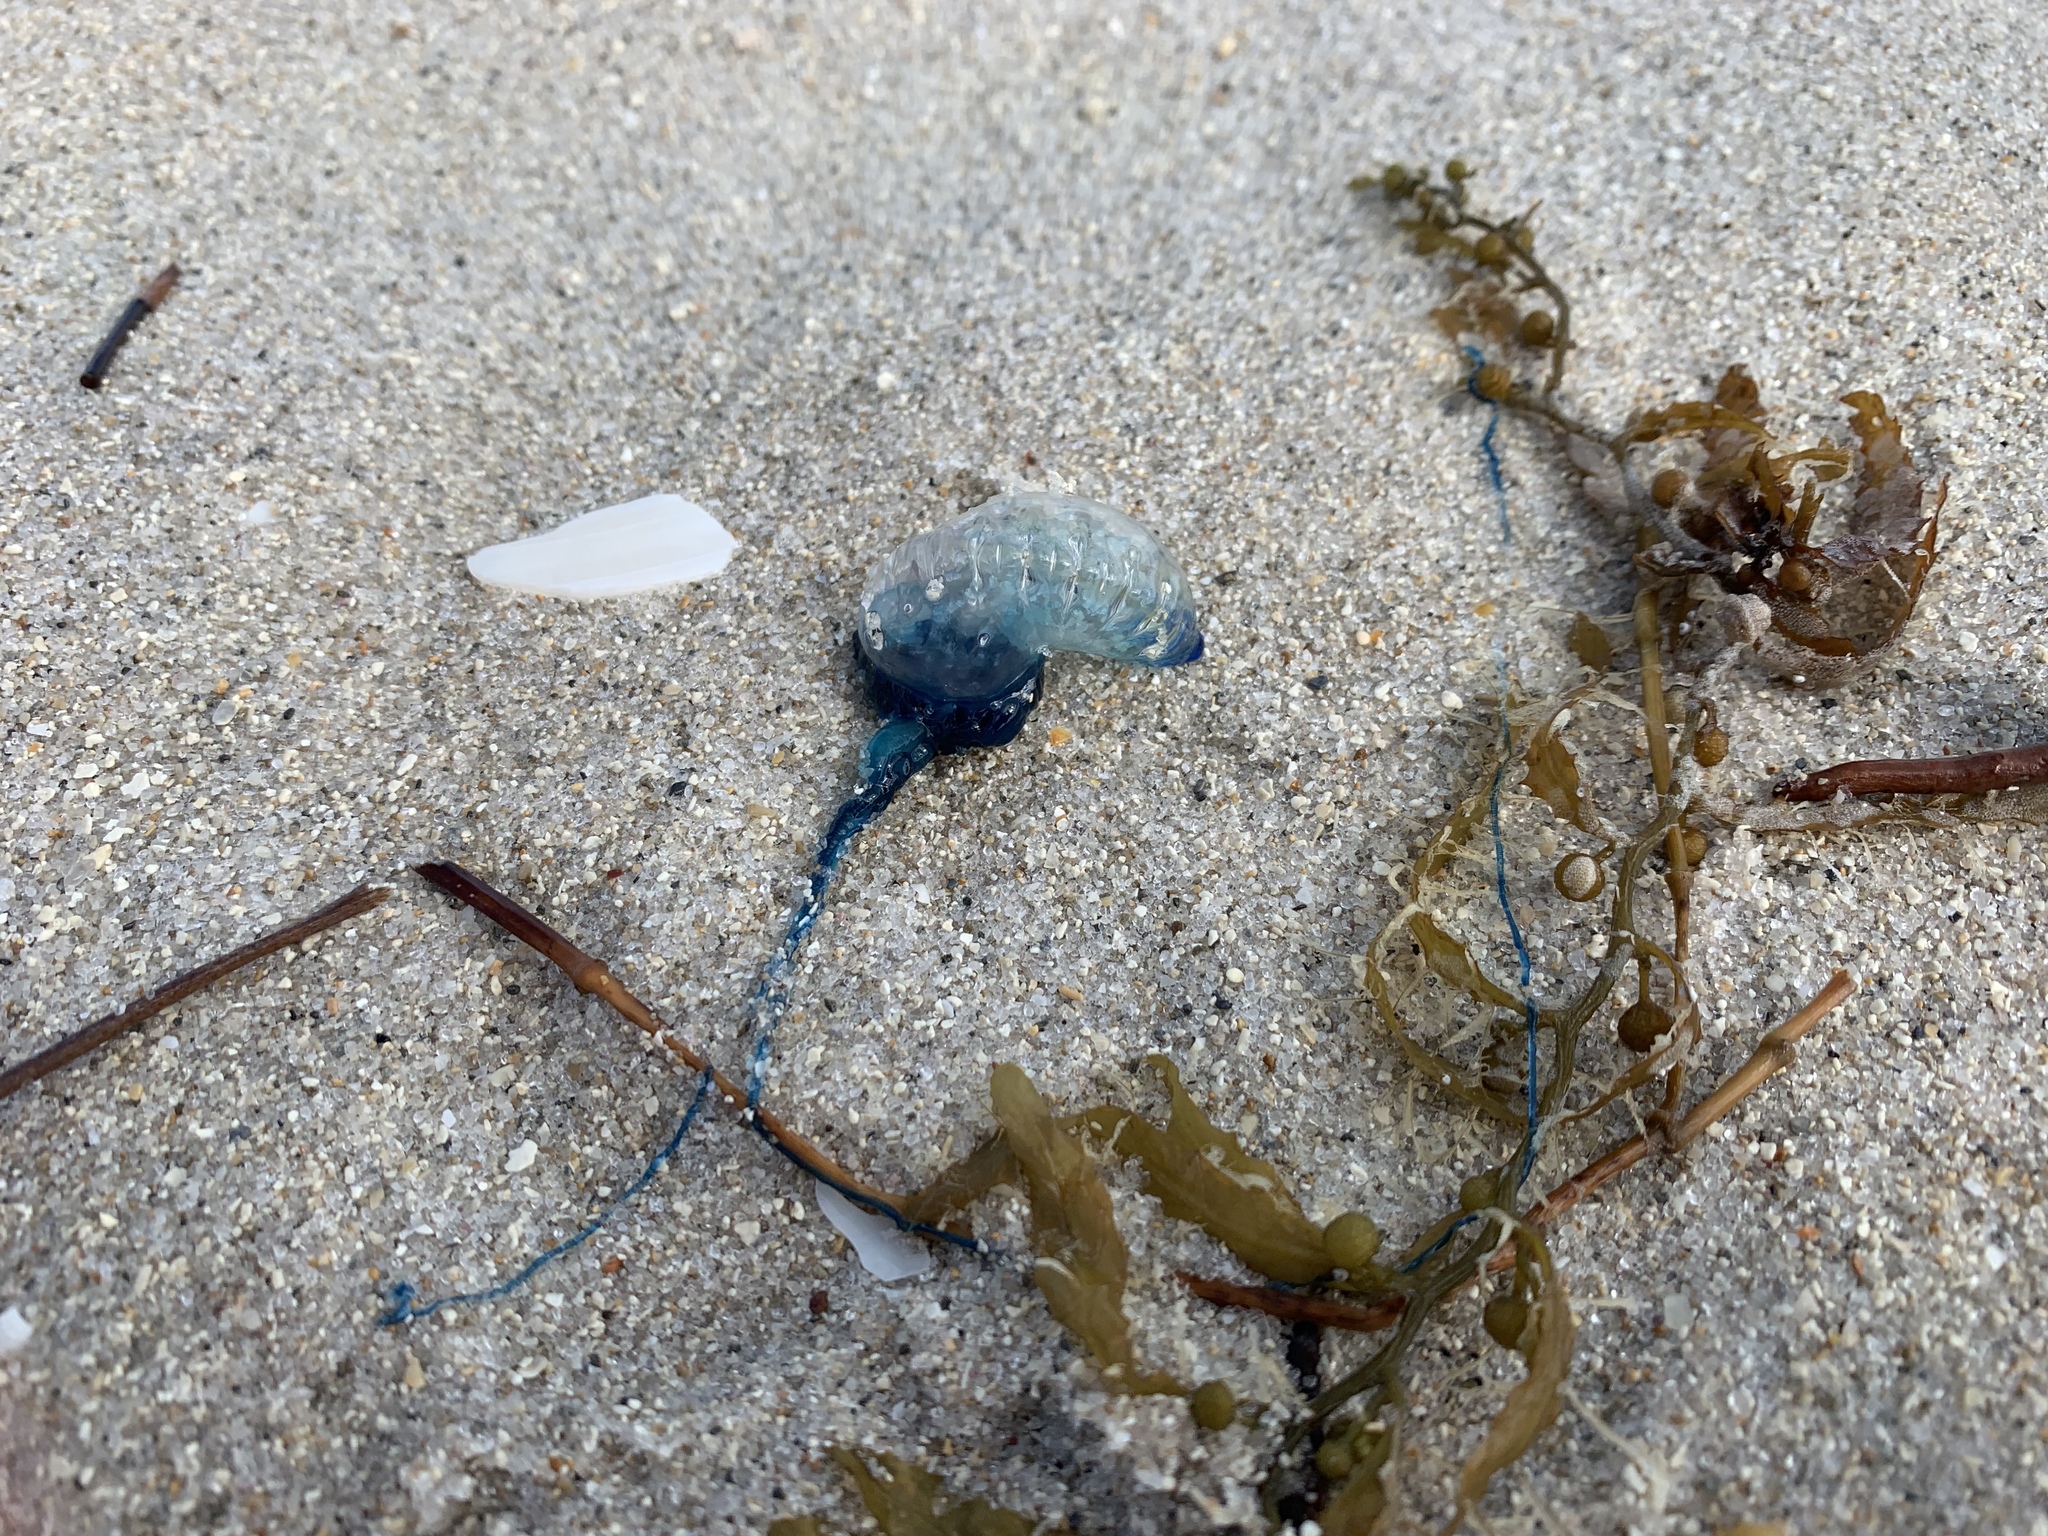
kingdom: Animalia
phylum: Cnidaria
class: Hydrozoa
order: Siphonophorae
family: Physaliidae
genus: Physalia
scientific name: Physalia physalis
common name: Portuguese man-of-war
